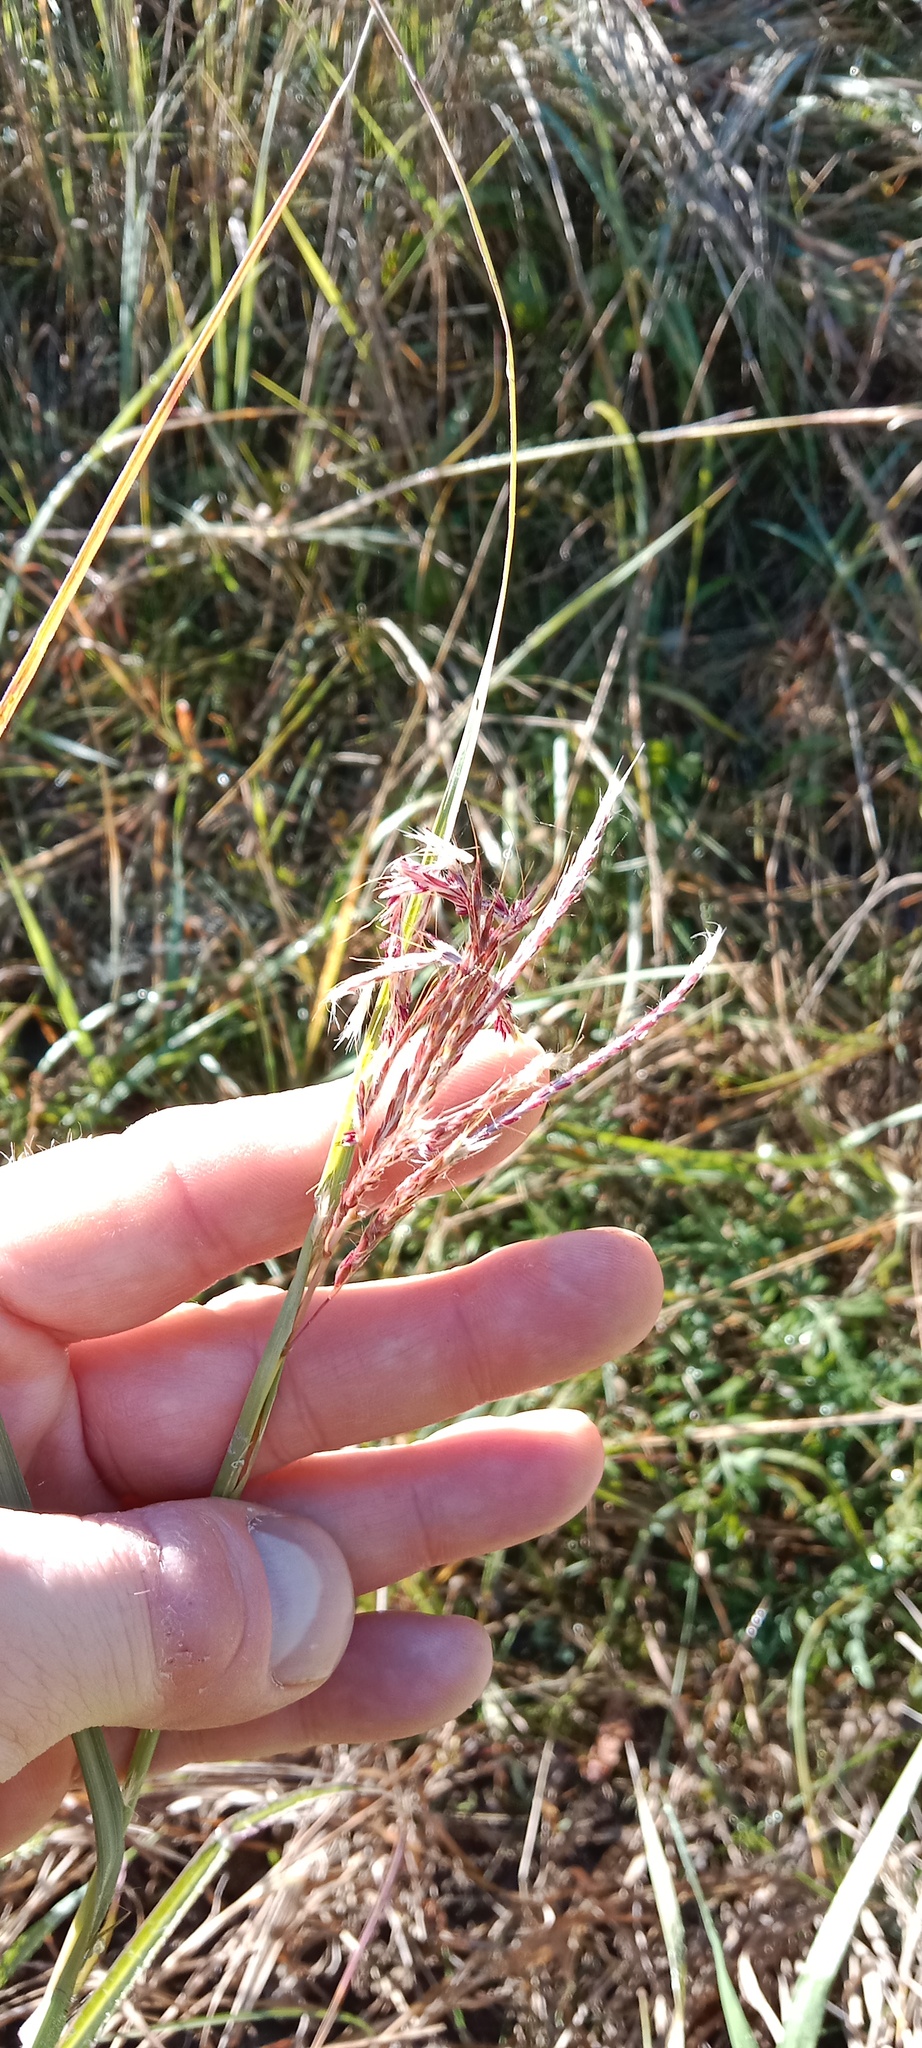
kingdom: Plantae
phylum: Tracheophyta
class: Liliopsida
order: Poales
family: Poaceae
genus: Bothriochloa
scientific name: Bothriochloa ischaemum
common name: Yellow bluestem
